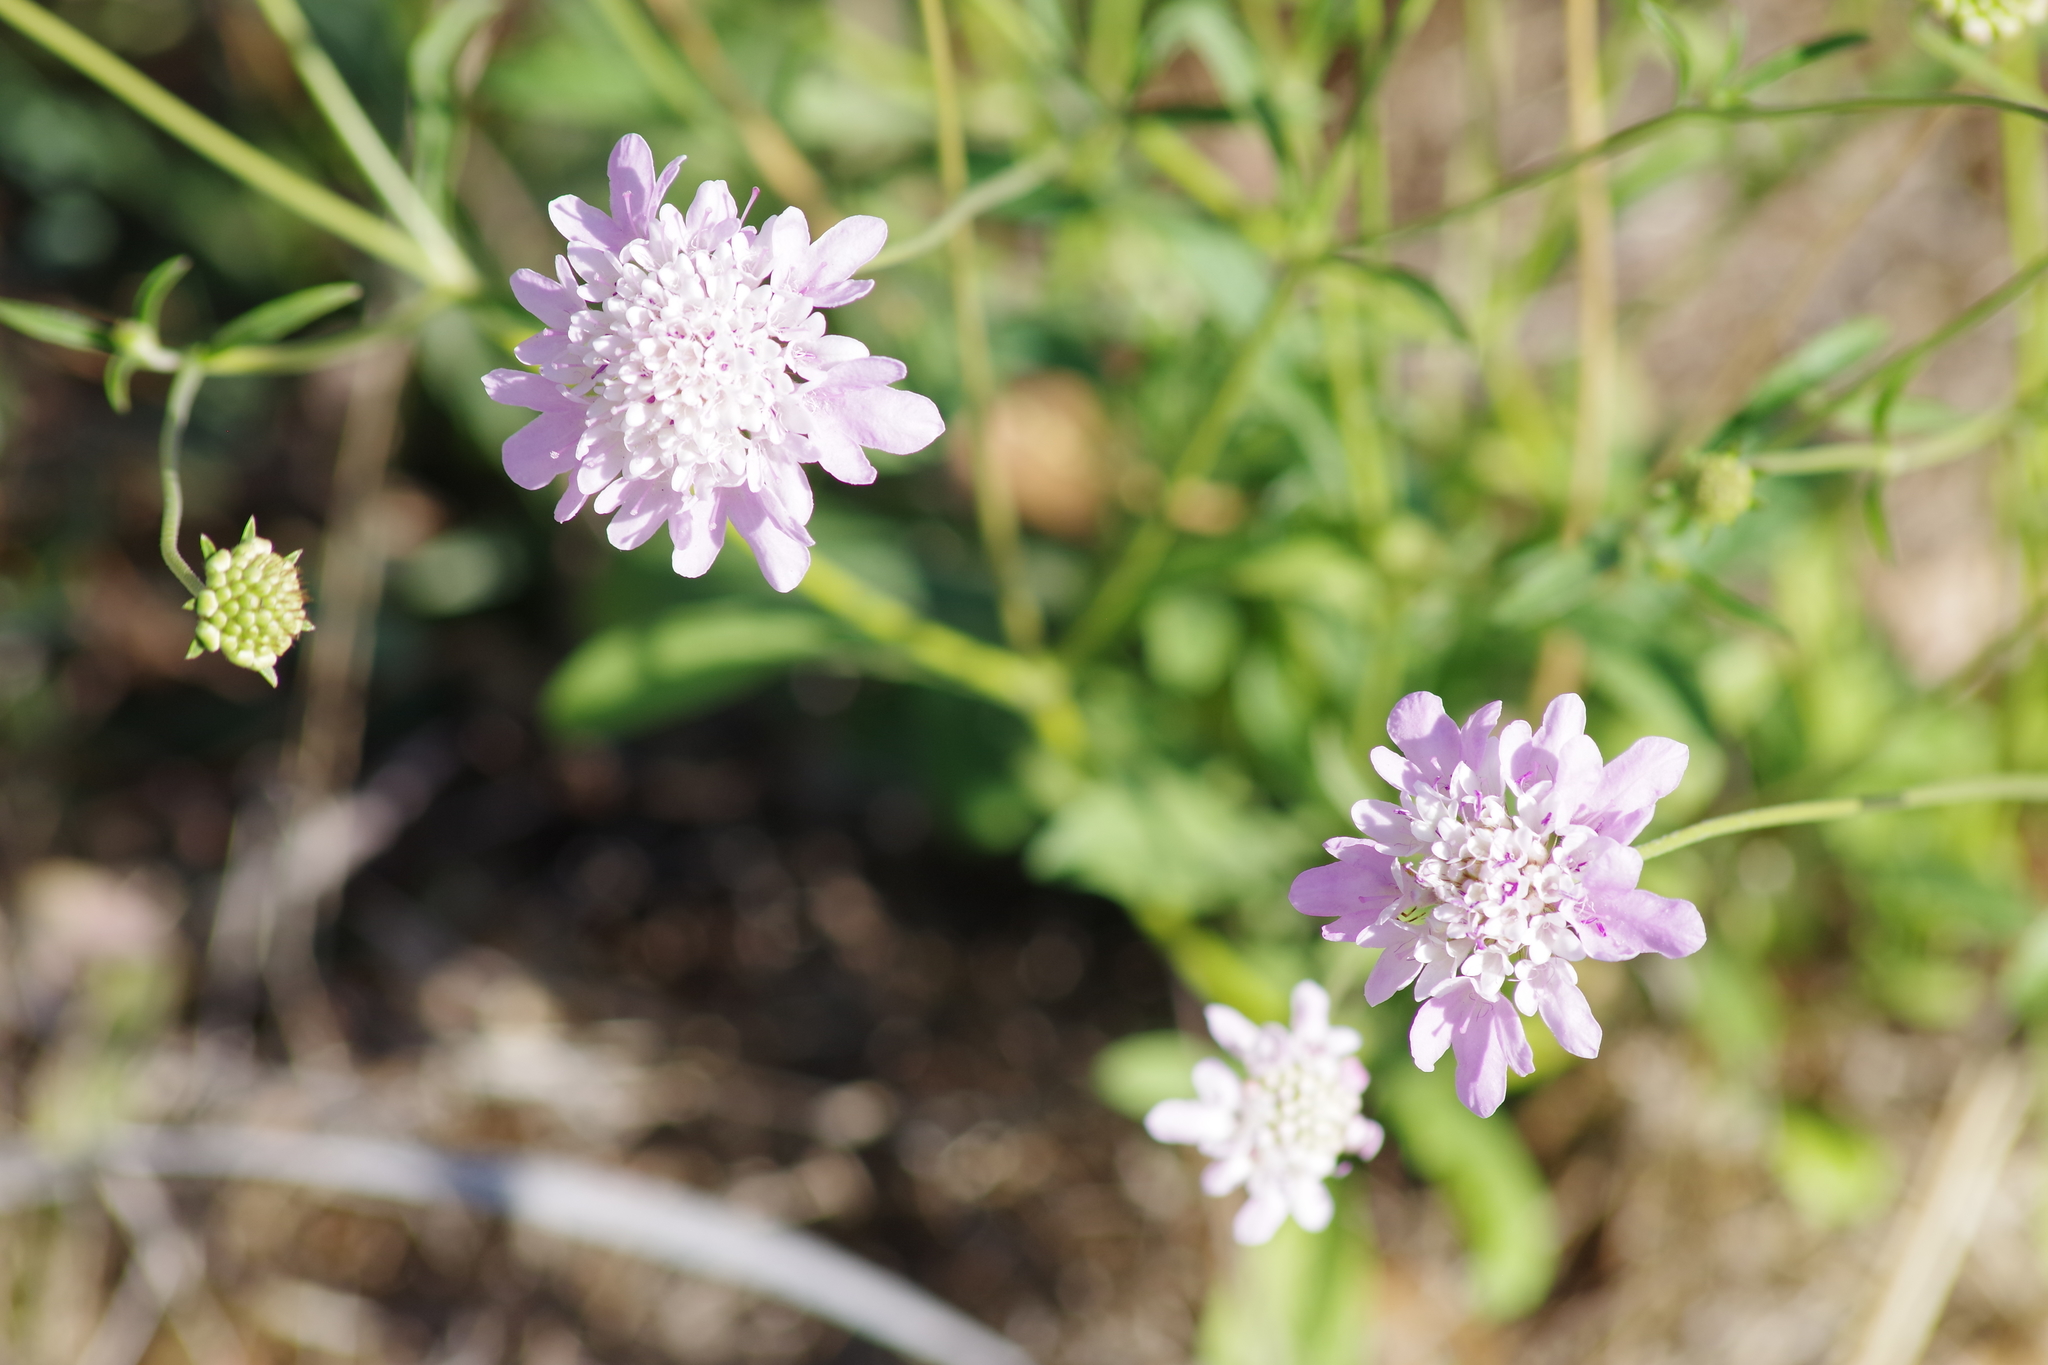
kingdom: Plantae
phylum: Tracheophyta
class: Magnoliopsida
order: Dipsacales
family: Caprifoliaceae
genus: Sixalix
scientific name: Sixalix atropurpurea
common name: Sweet scabious
